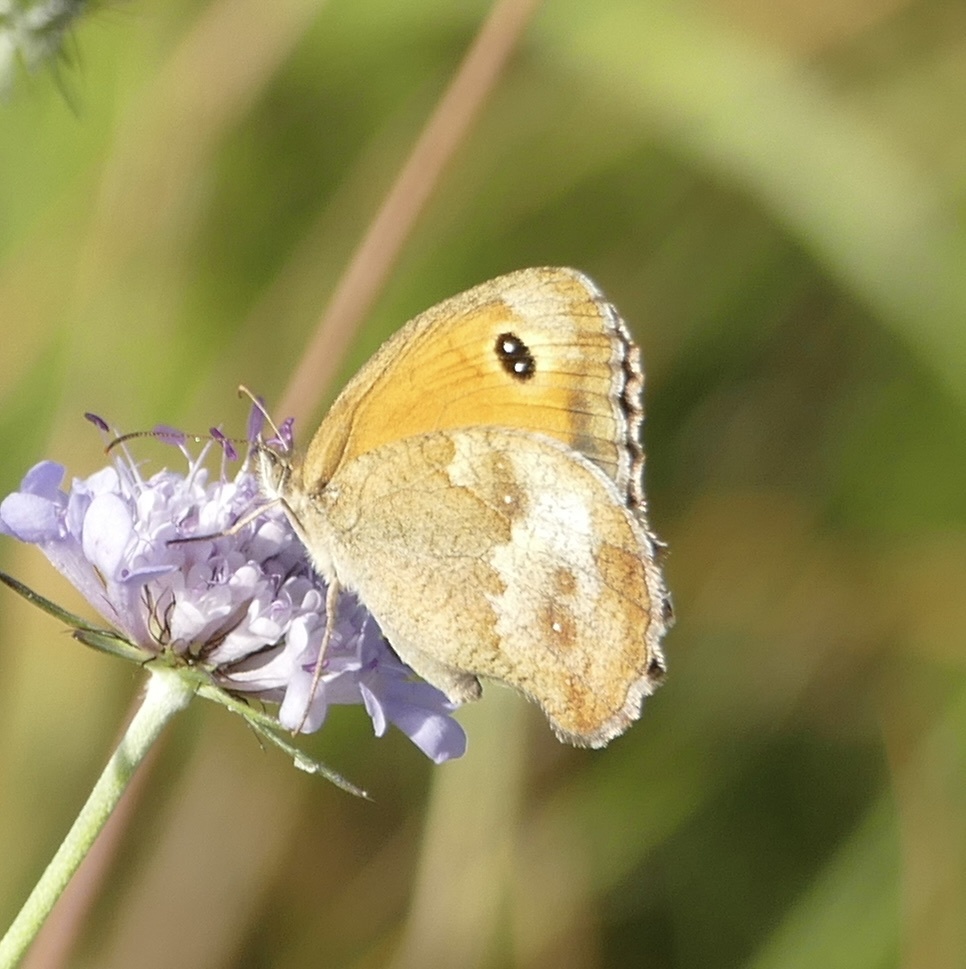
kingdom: Animalia
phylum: Arthropoda
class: Insecta
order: Lepidoptera
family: Nymphalidae
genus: Pyronia
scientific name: Pyronia tithonus
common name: Gatekeeper
